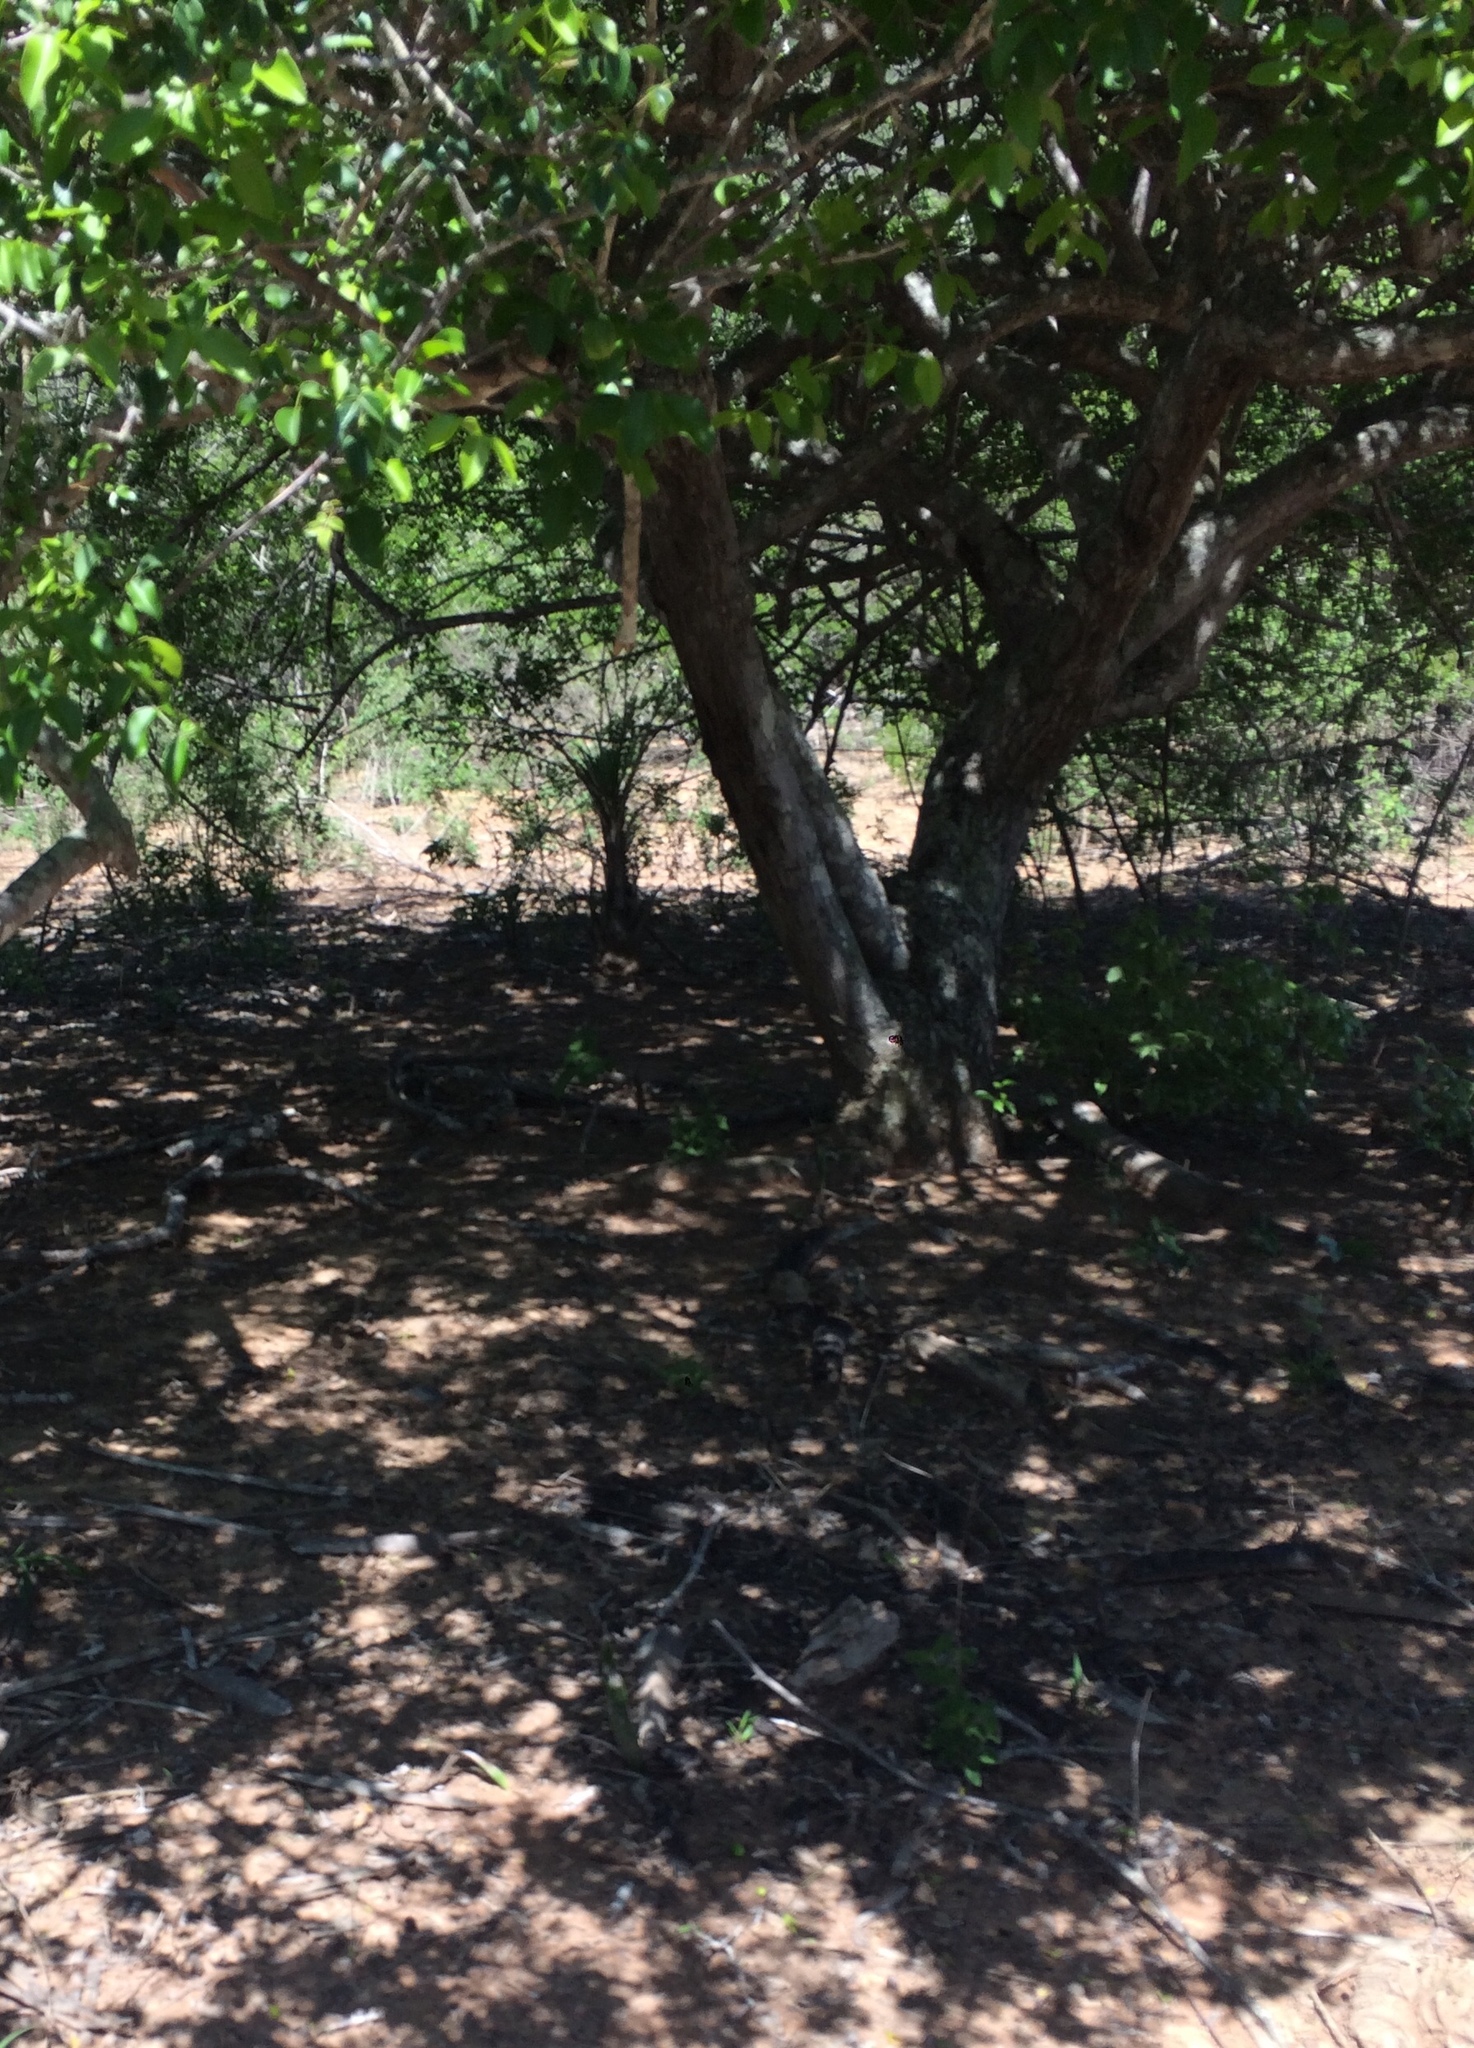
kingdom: Plantae
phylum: Tracheophyta
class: Magnoliopsida
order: Sapindales
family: Anacardiaceae
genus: Spondias
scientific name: Spondias tuberosa
